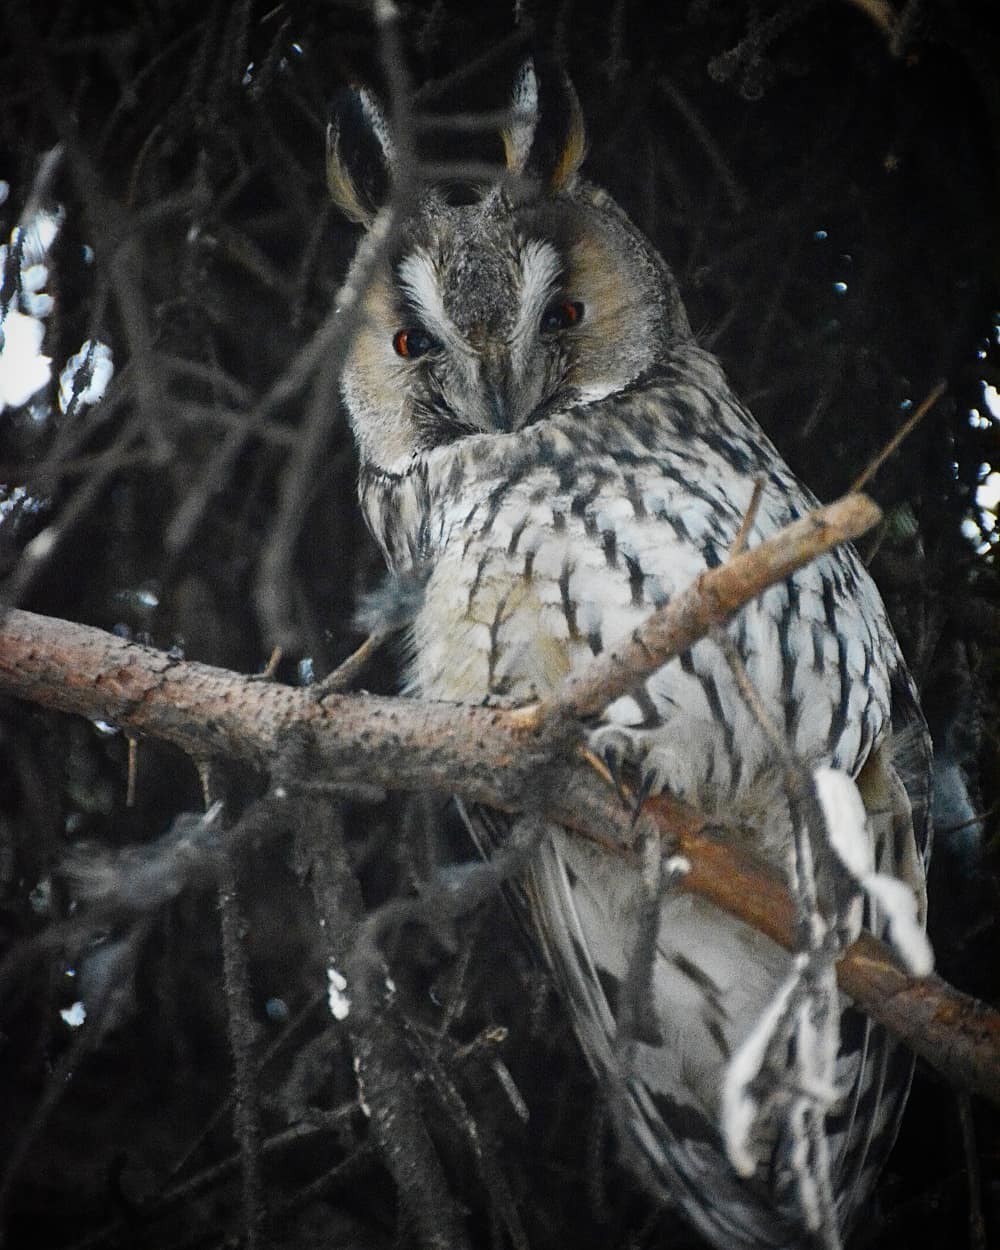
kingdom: Animalia
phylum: Chordata
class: Aves
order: Strigiformes
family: Strigidae
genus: Asio
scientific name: Asio otus
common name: Long-eared owl
